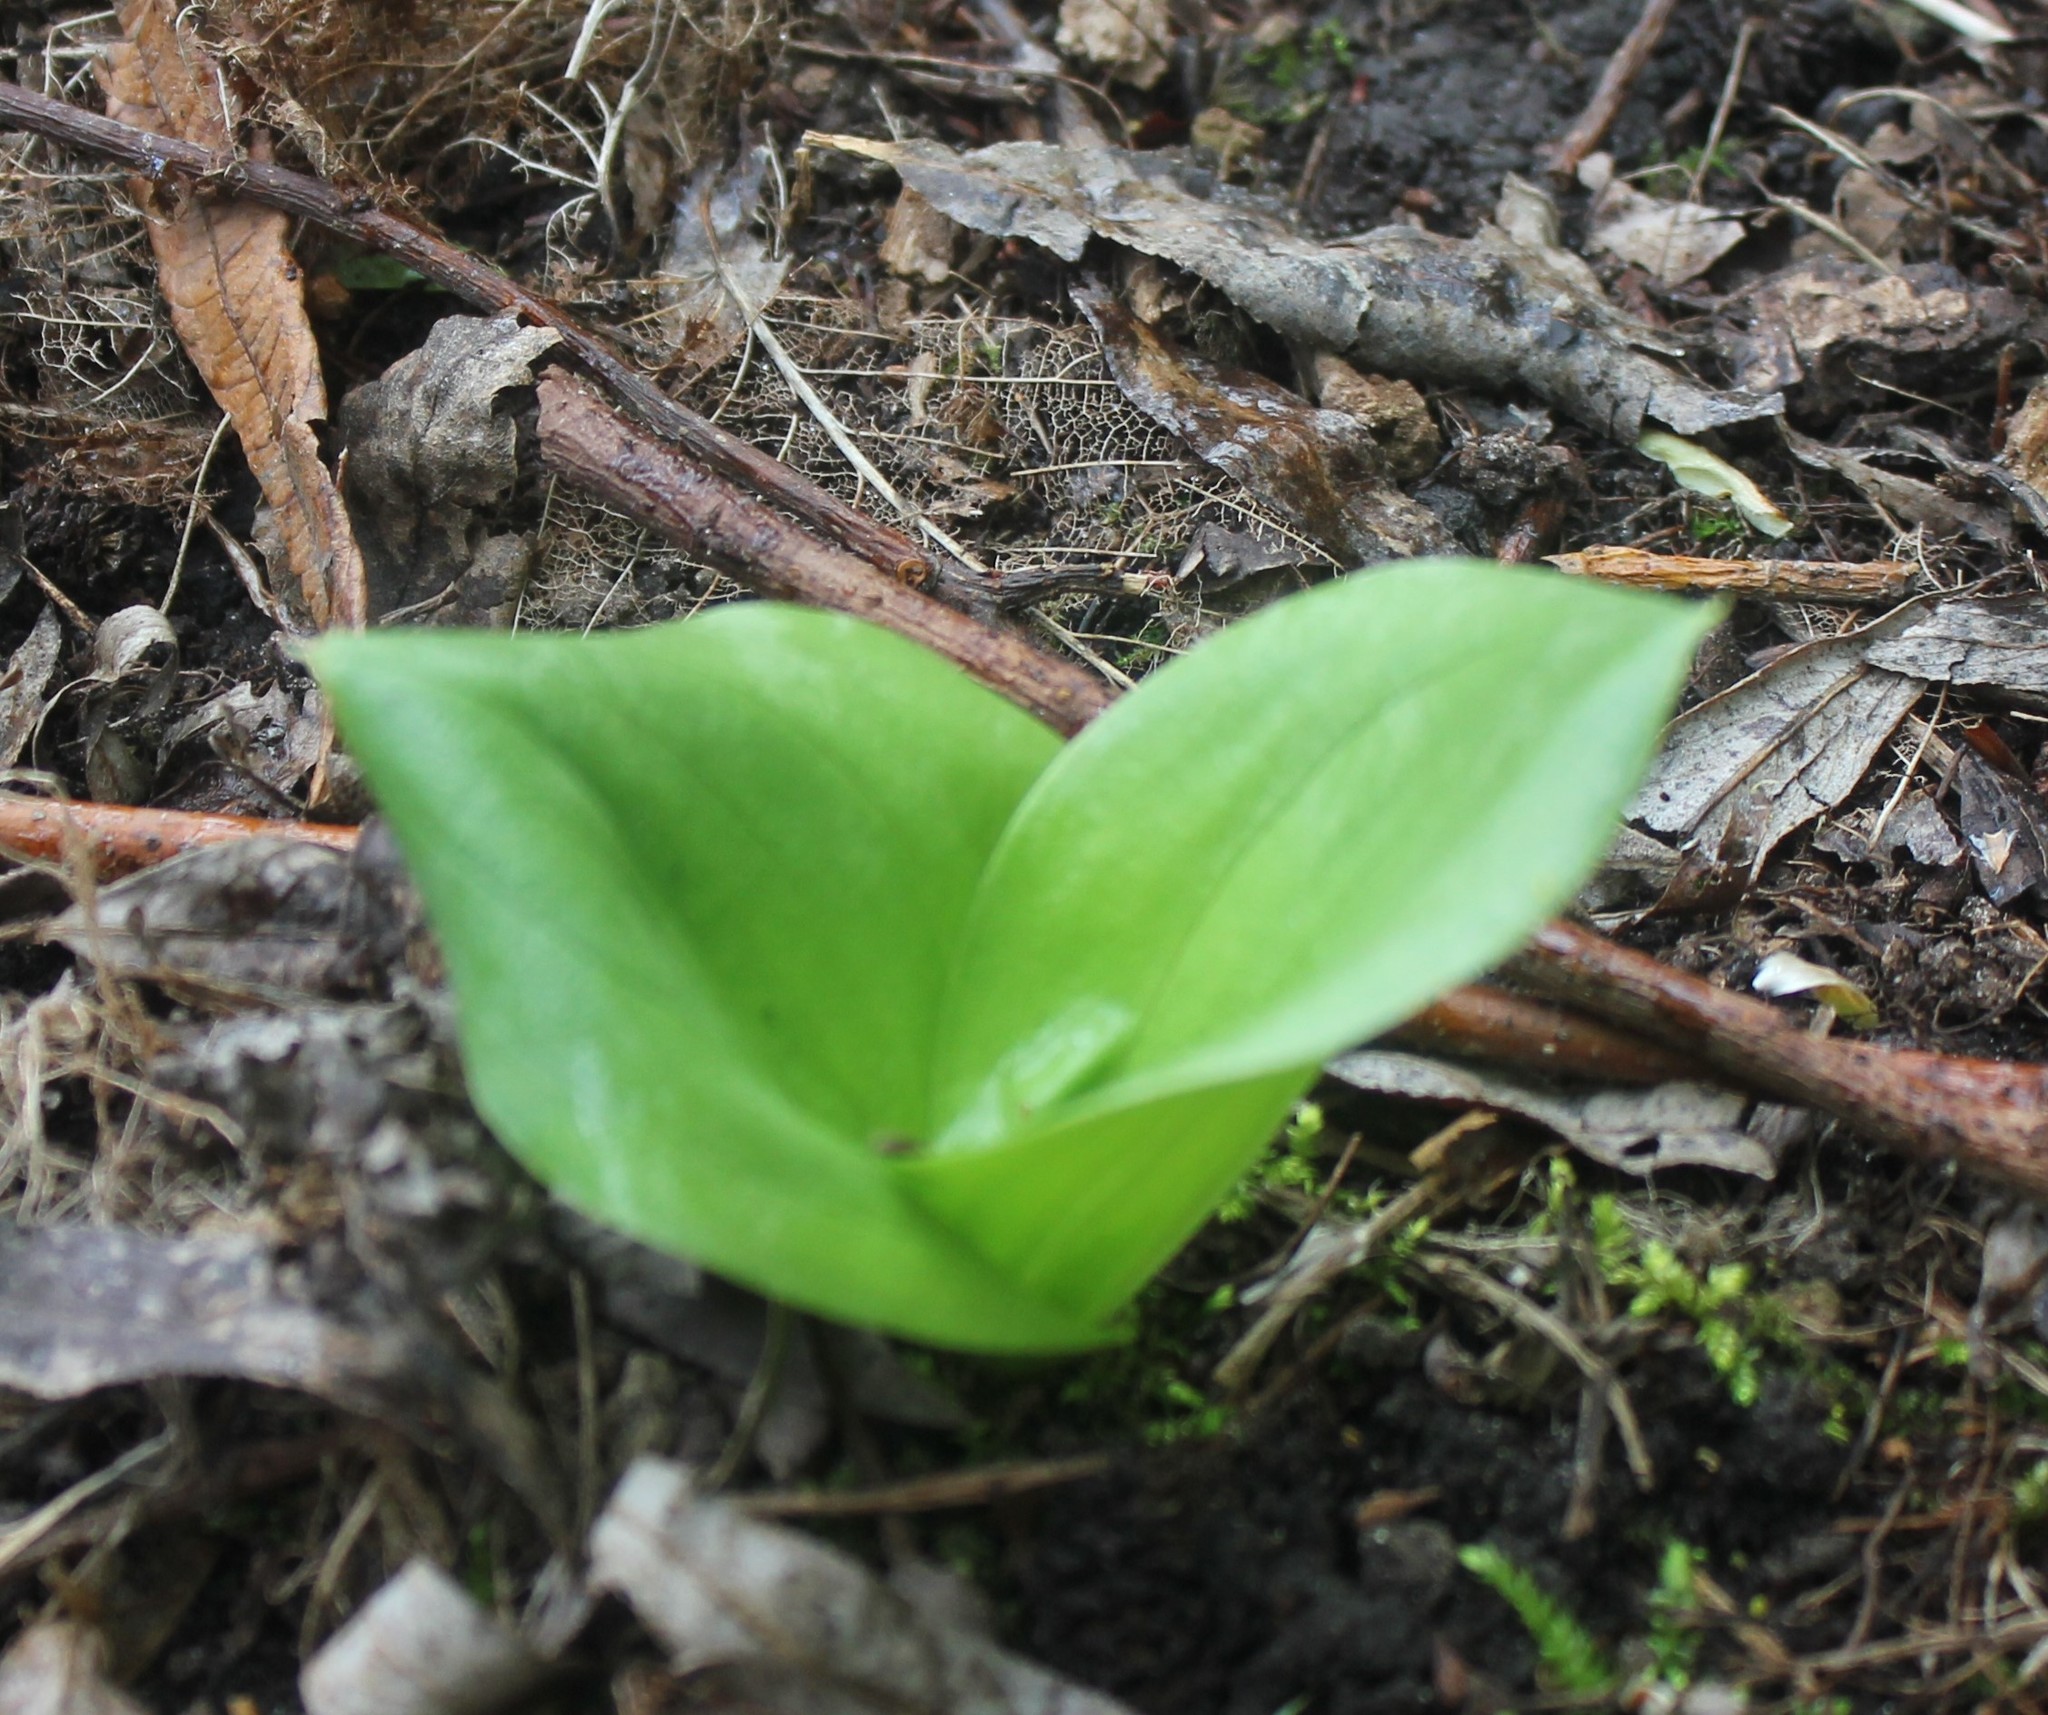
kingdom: Plantae
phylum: Tracheophyta
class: Liliopsida
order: Asparagales
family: Orchidaceae
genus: Neottia
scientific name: Neottia ovata
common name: Common twayblade
